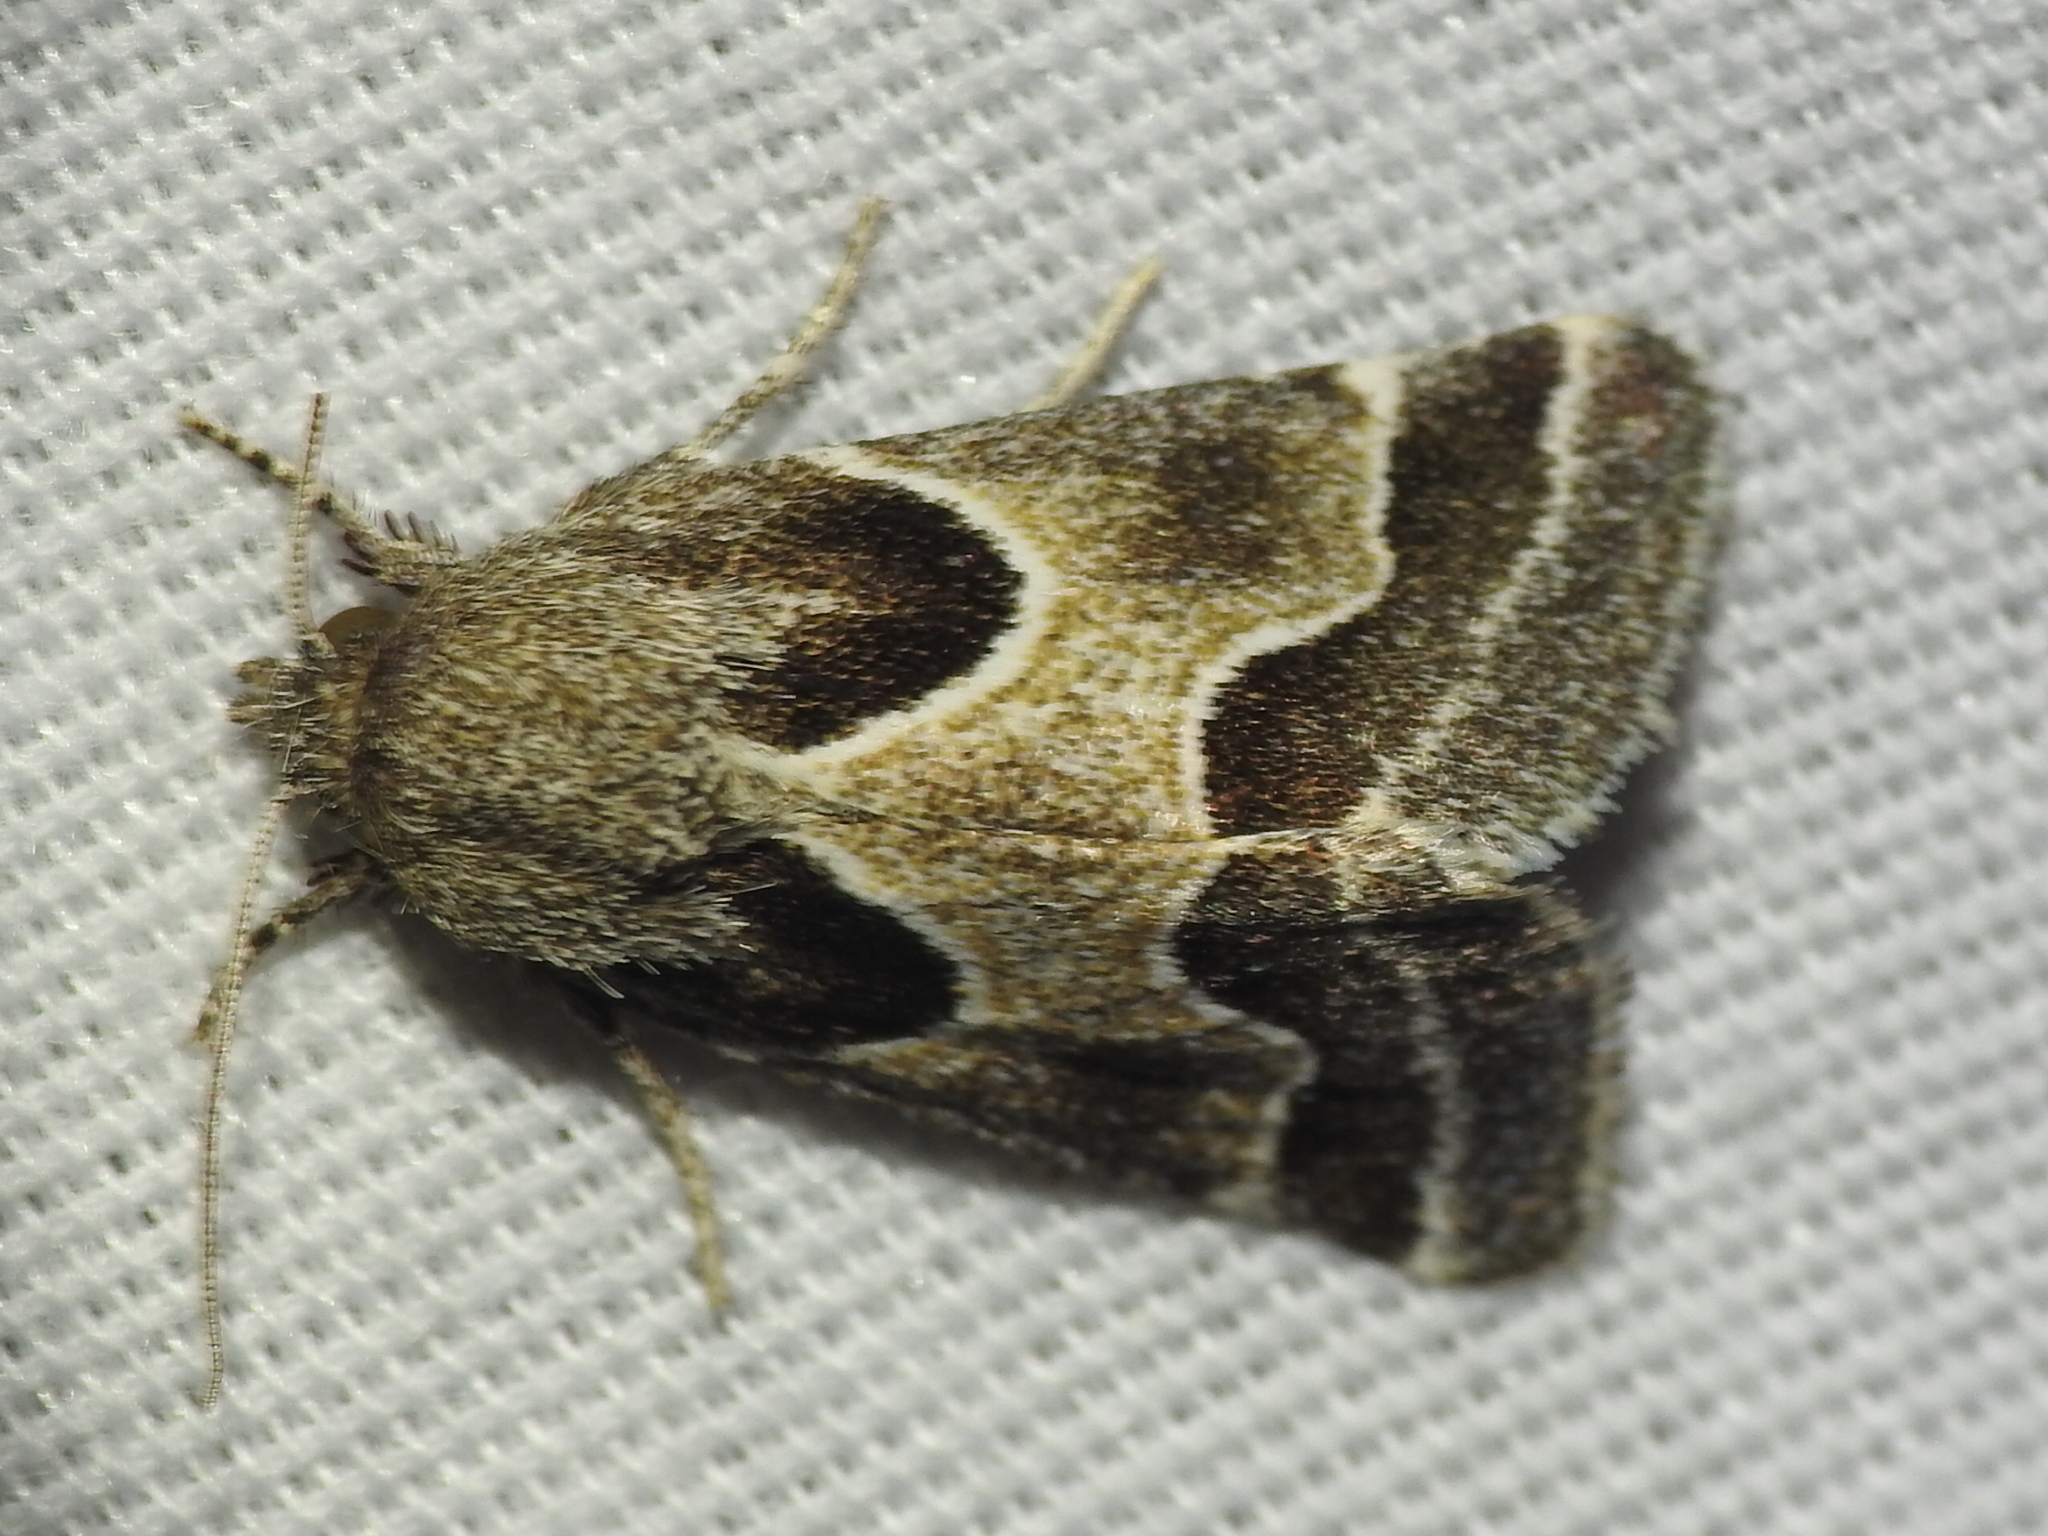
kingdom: Animalia
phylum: Arthropoda
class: Insecta
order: Lepidoptera
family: Noctuidae
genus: Schinia
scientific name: Schinia rivulosa
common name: Scarce meal-moth
